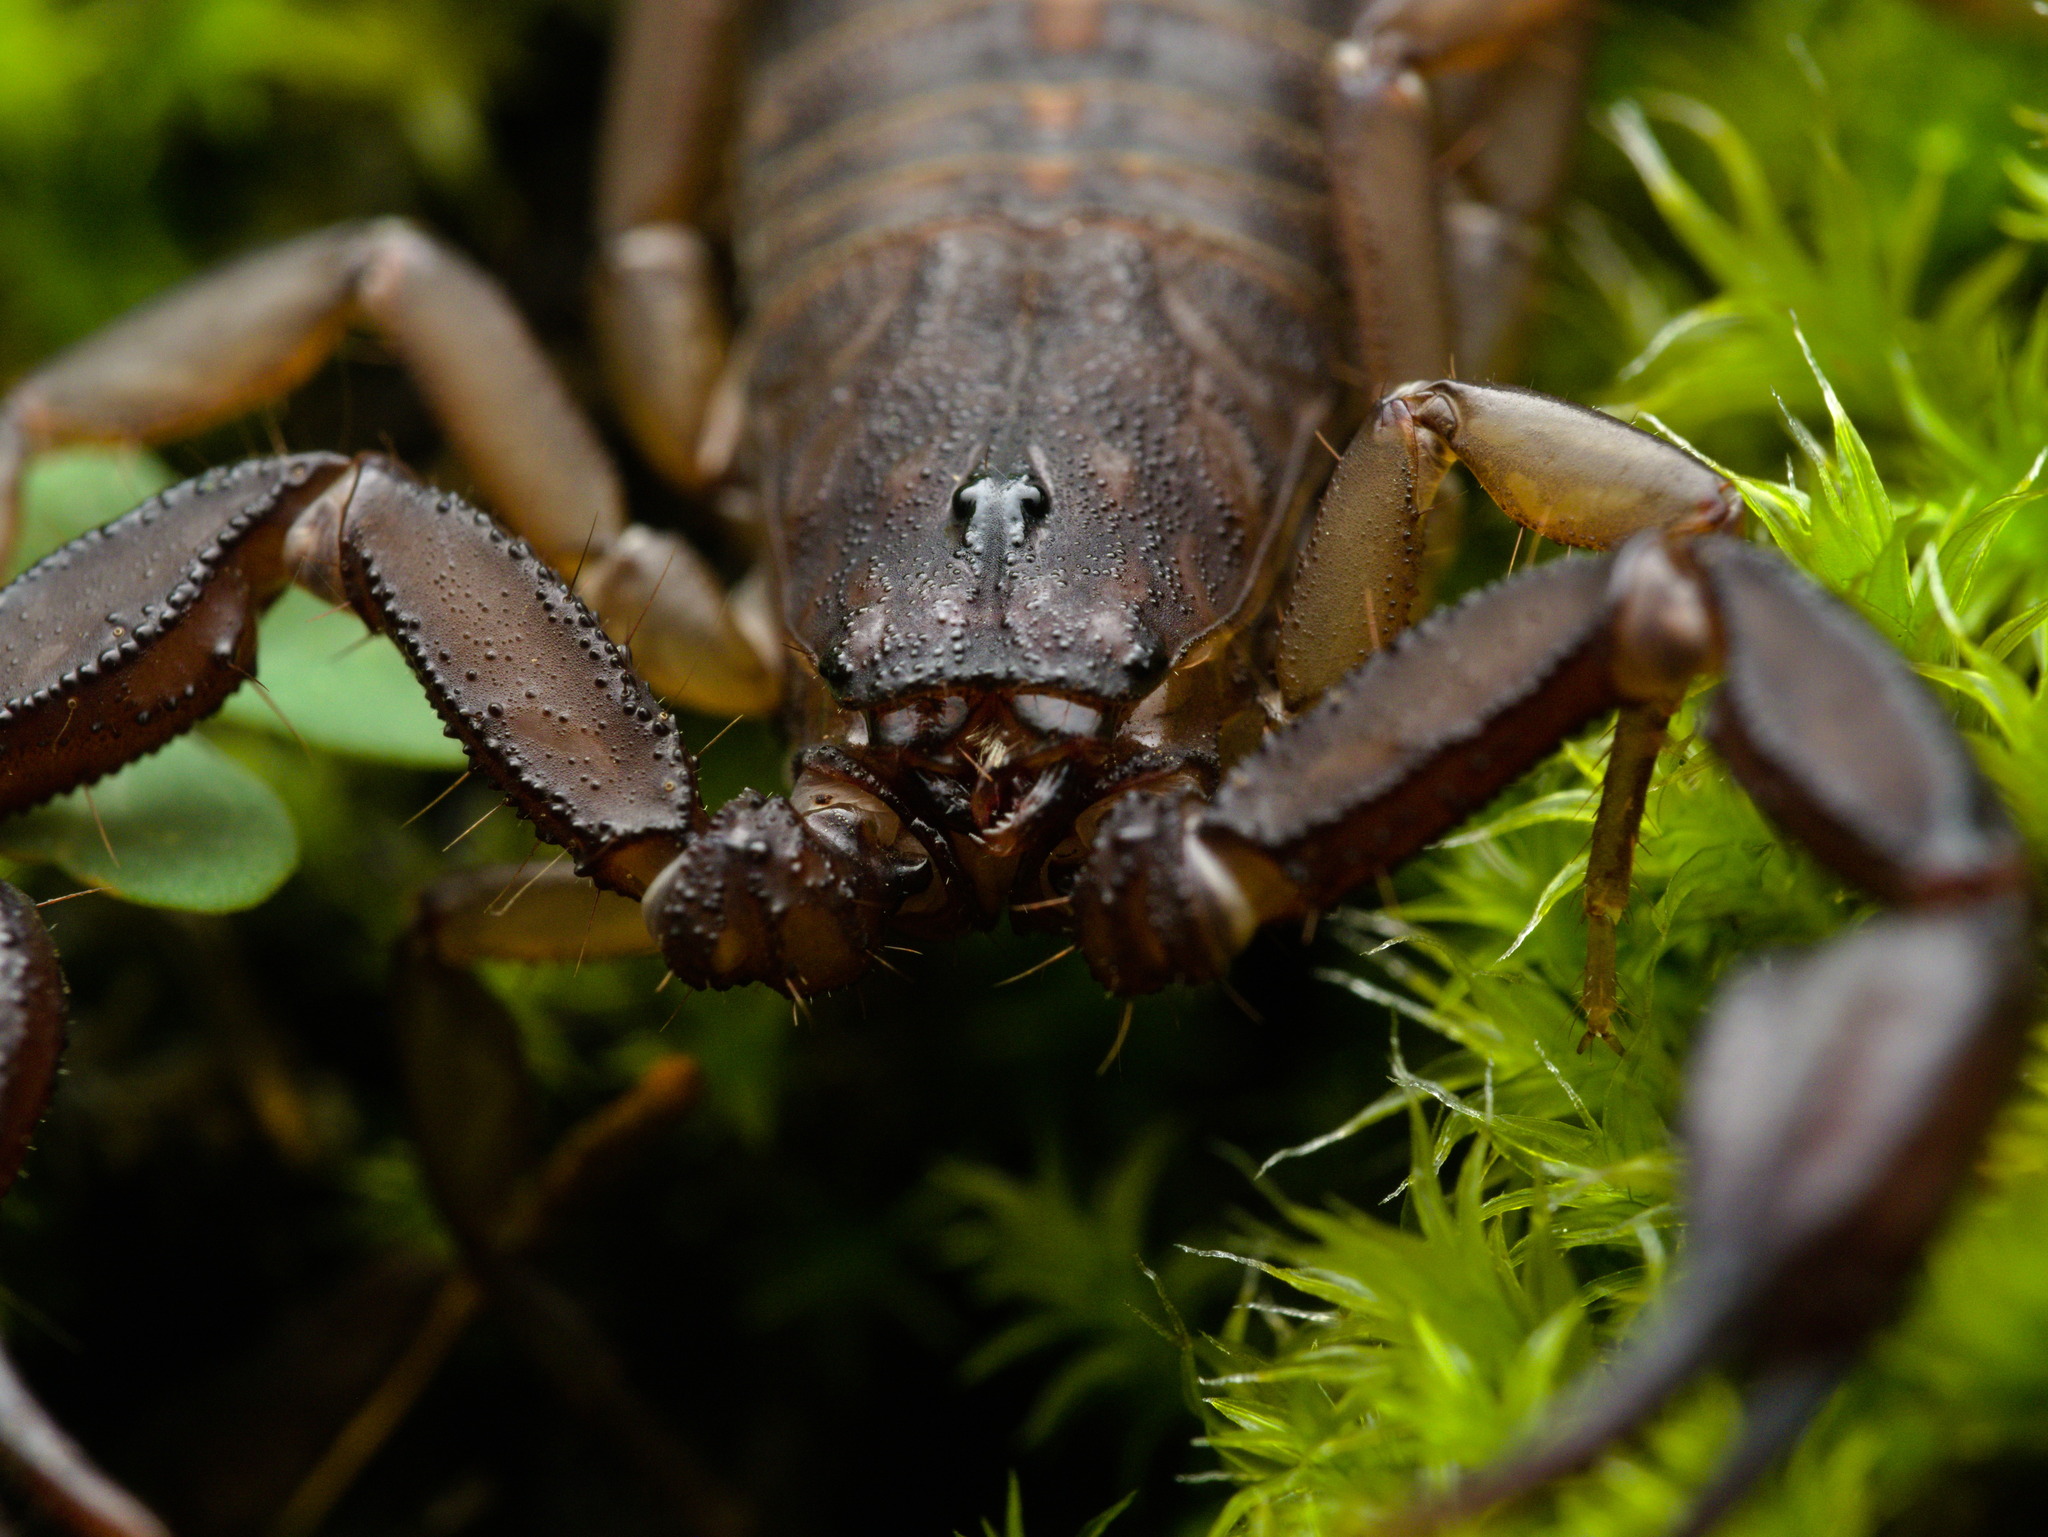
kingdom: Animalia
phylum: Arthropoda
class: Arachnida
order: Scorpiones
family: Vaejovidae
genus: Vaejovis
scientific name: Vaejovis mexicanus
